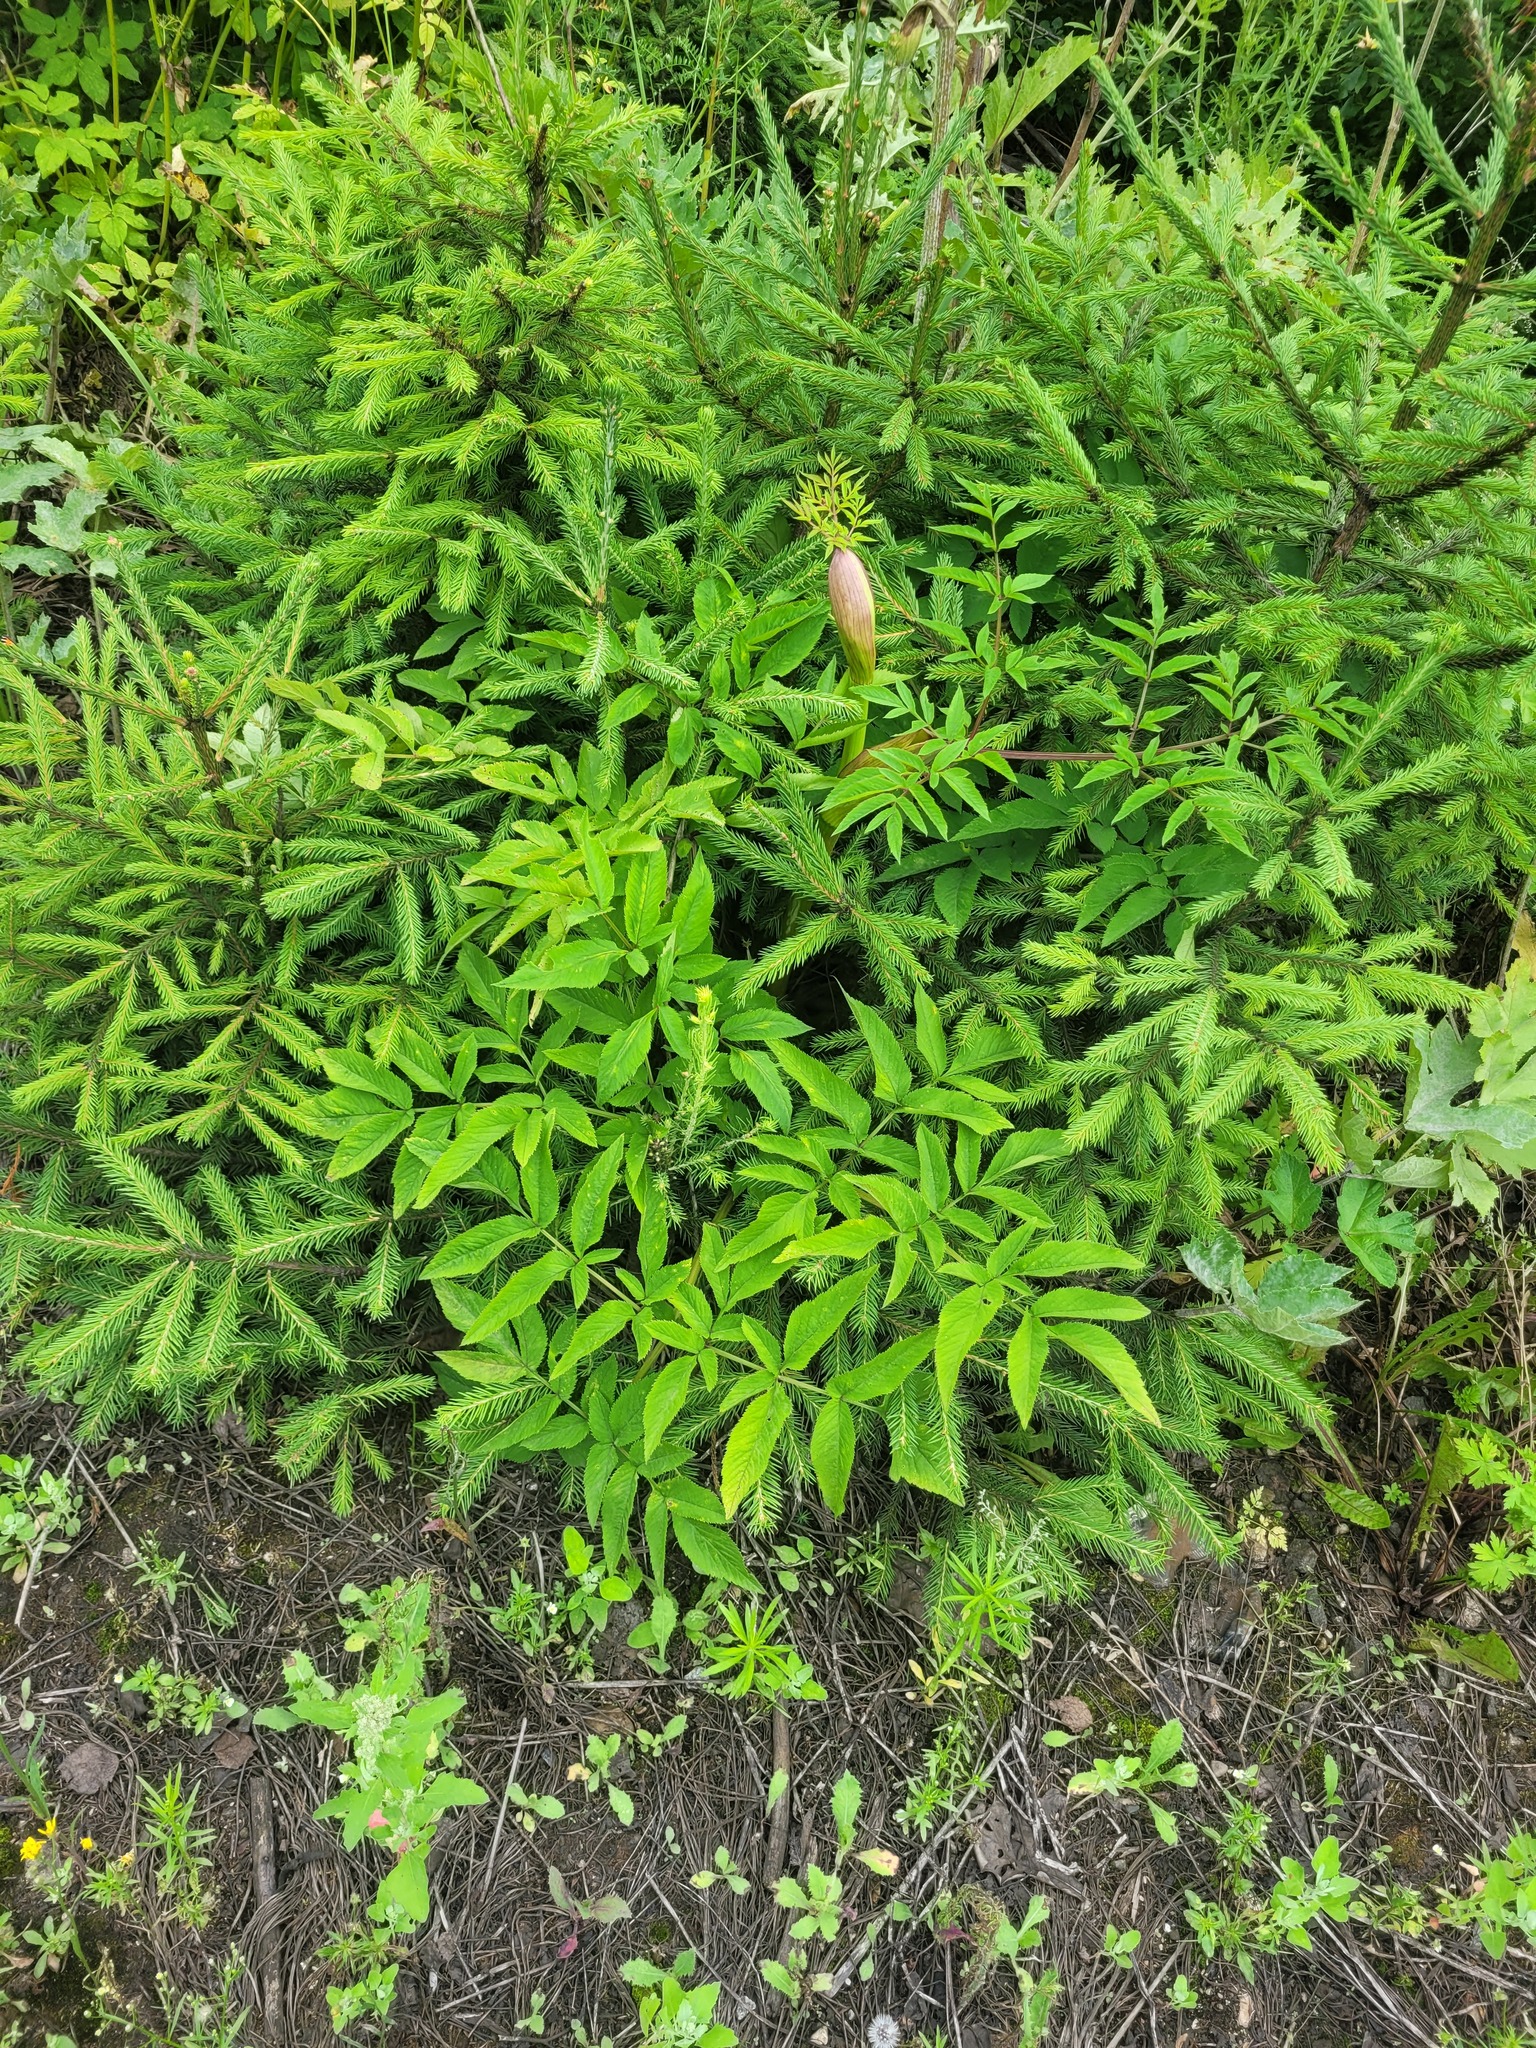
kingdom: Plantae
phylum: Tracheophyta
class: Magnoliopsida
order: Apiales
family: Apiaceae
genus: Angelica
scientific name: Angelica sylvestris
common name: Wild angelica
